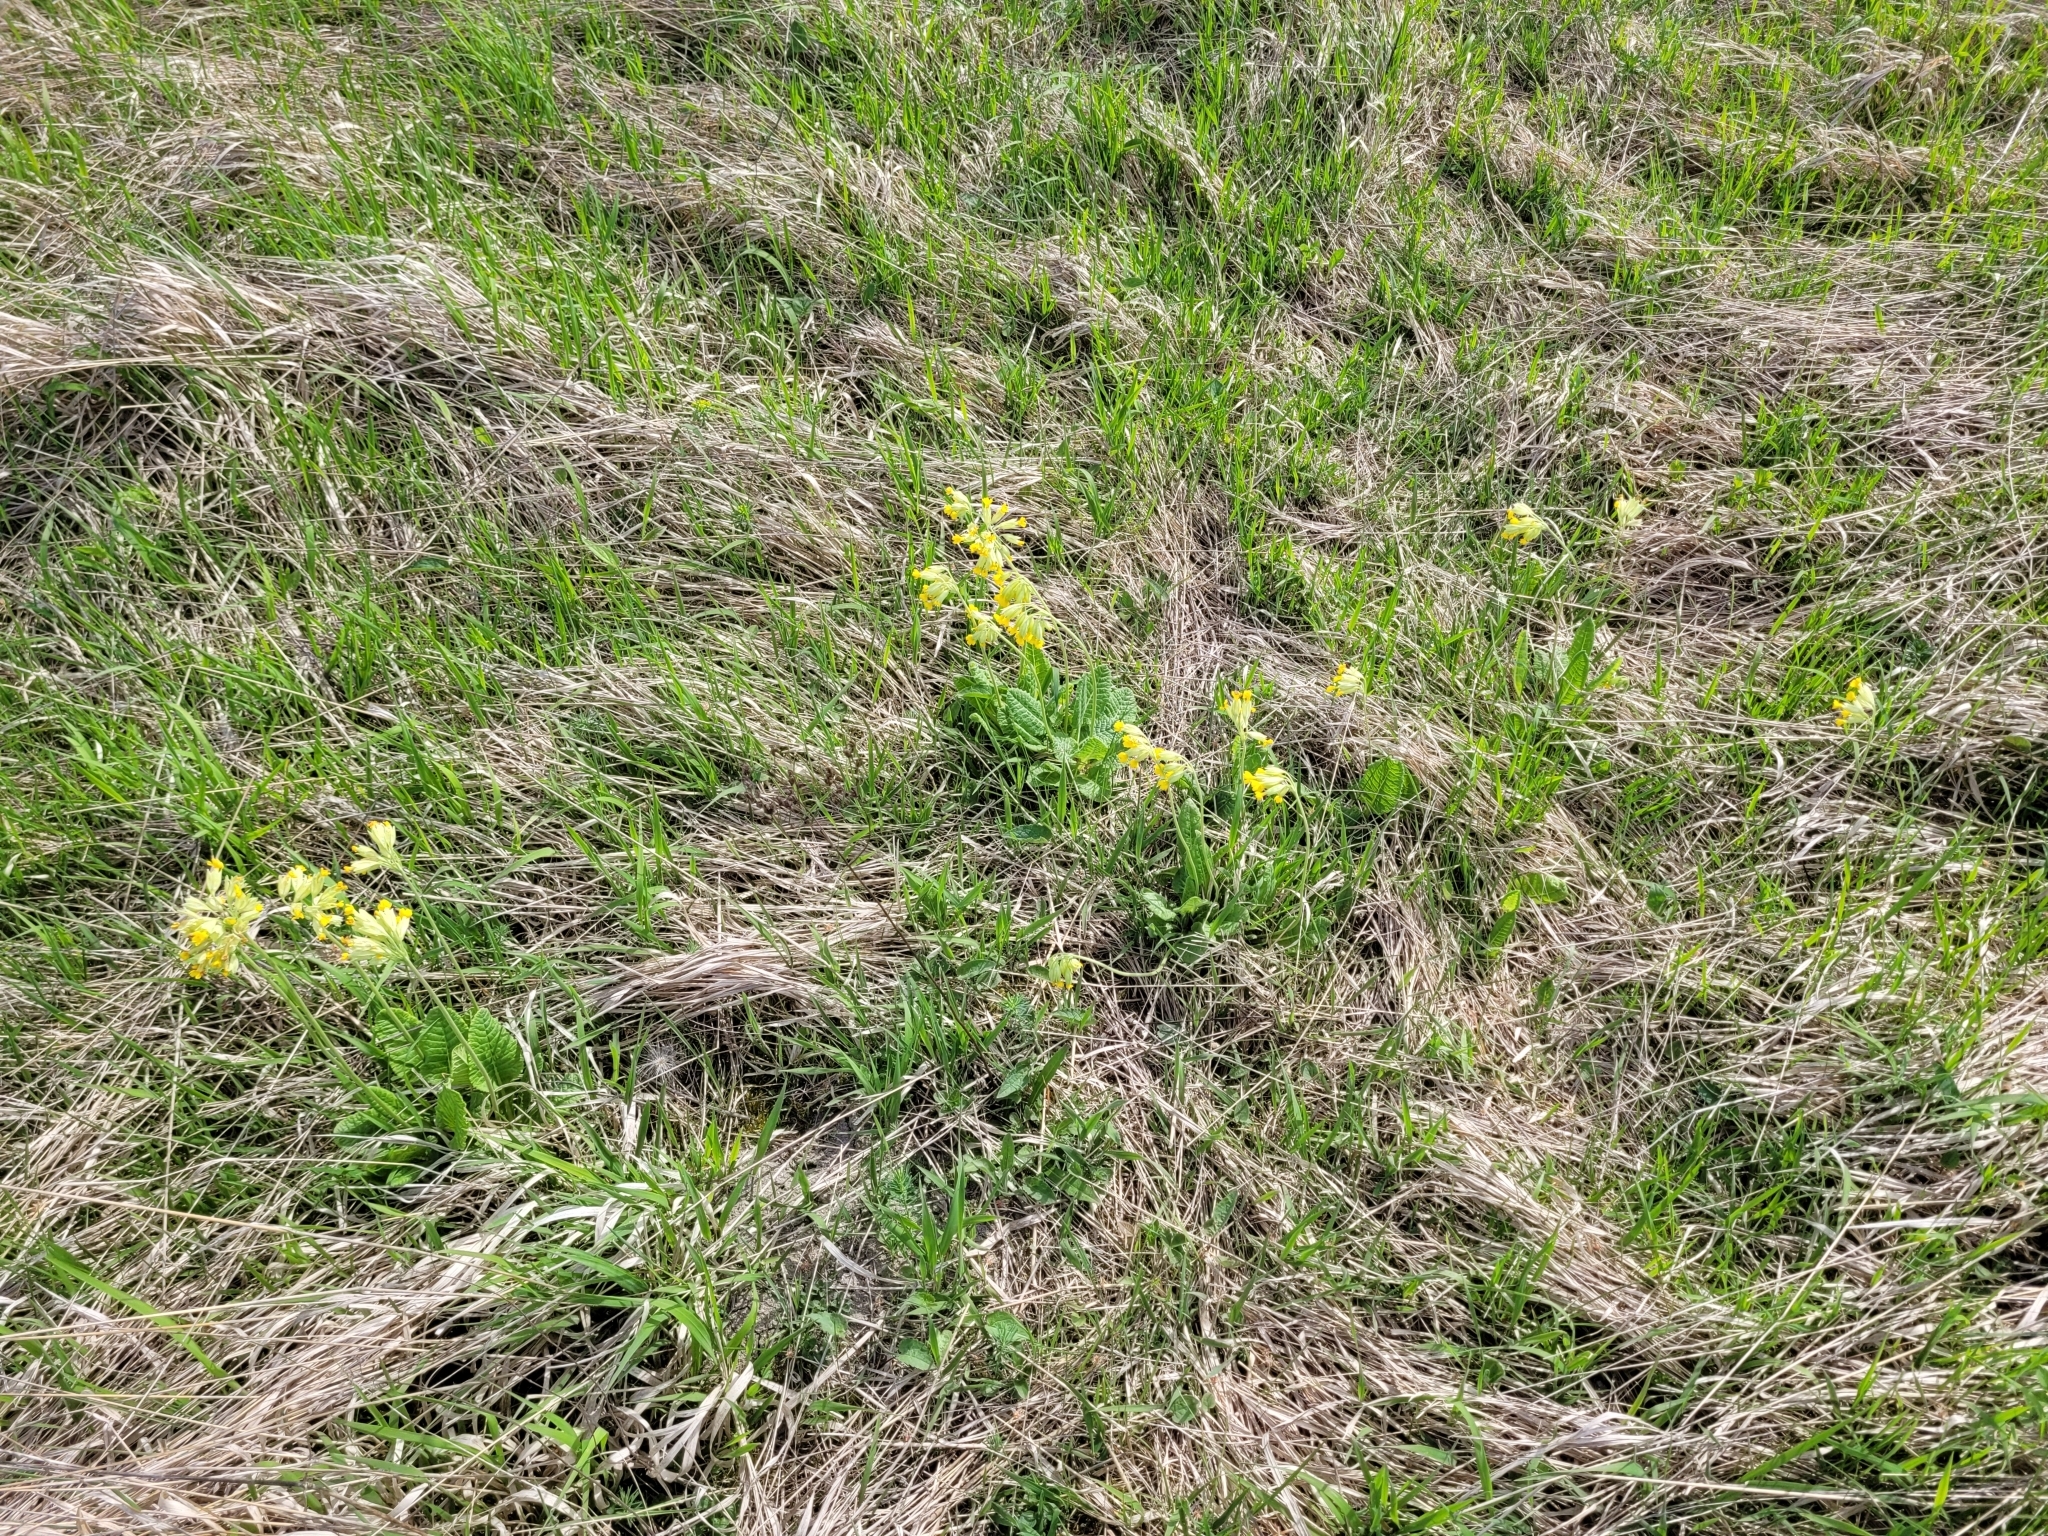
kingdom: Plantae
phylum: Tracheophyta
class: Magnoliopsida
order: Ericales
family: Primulaceae
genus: Primula
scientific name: Primula veris
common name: Cowslip
